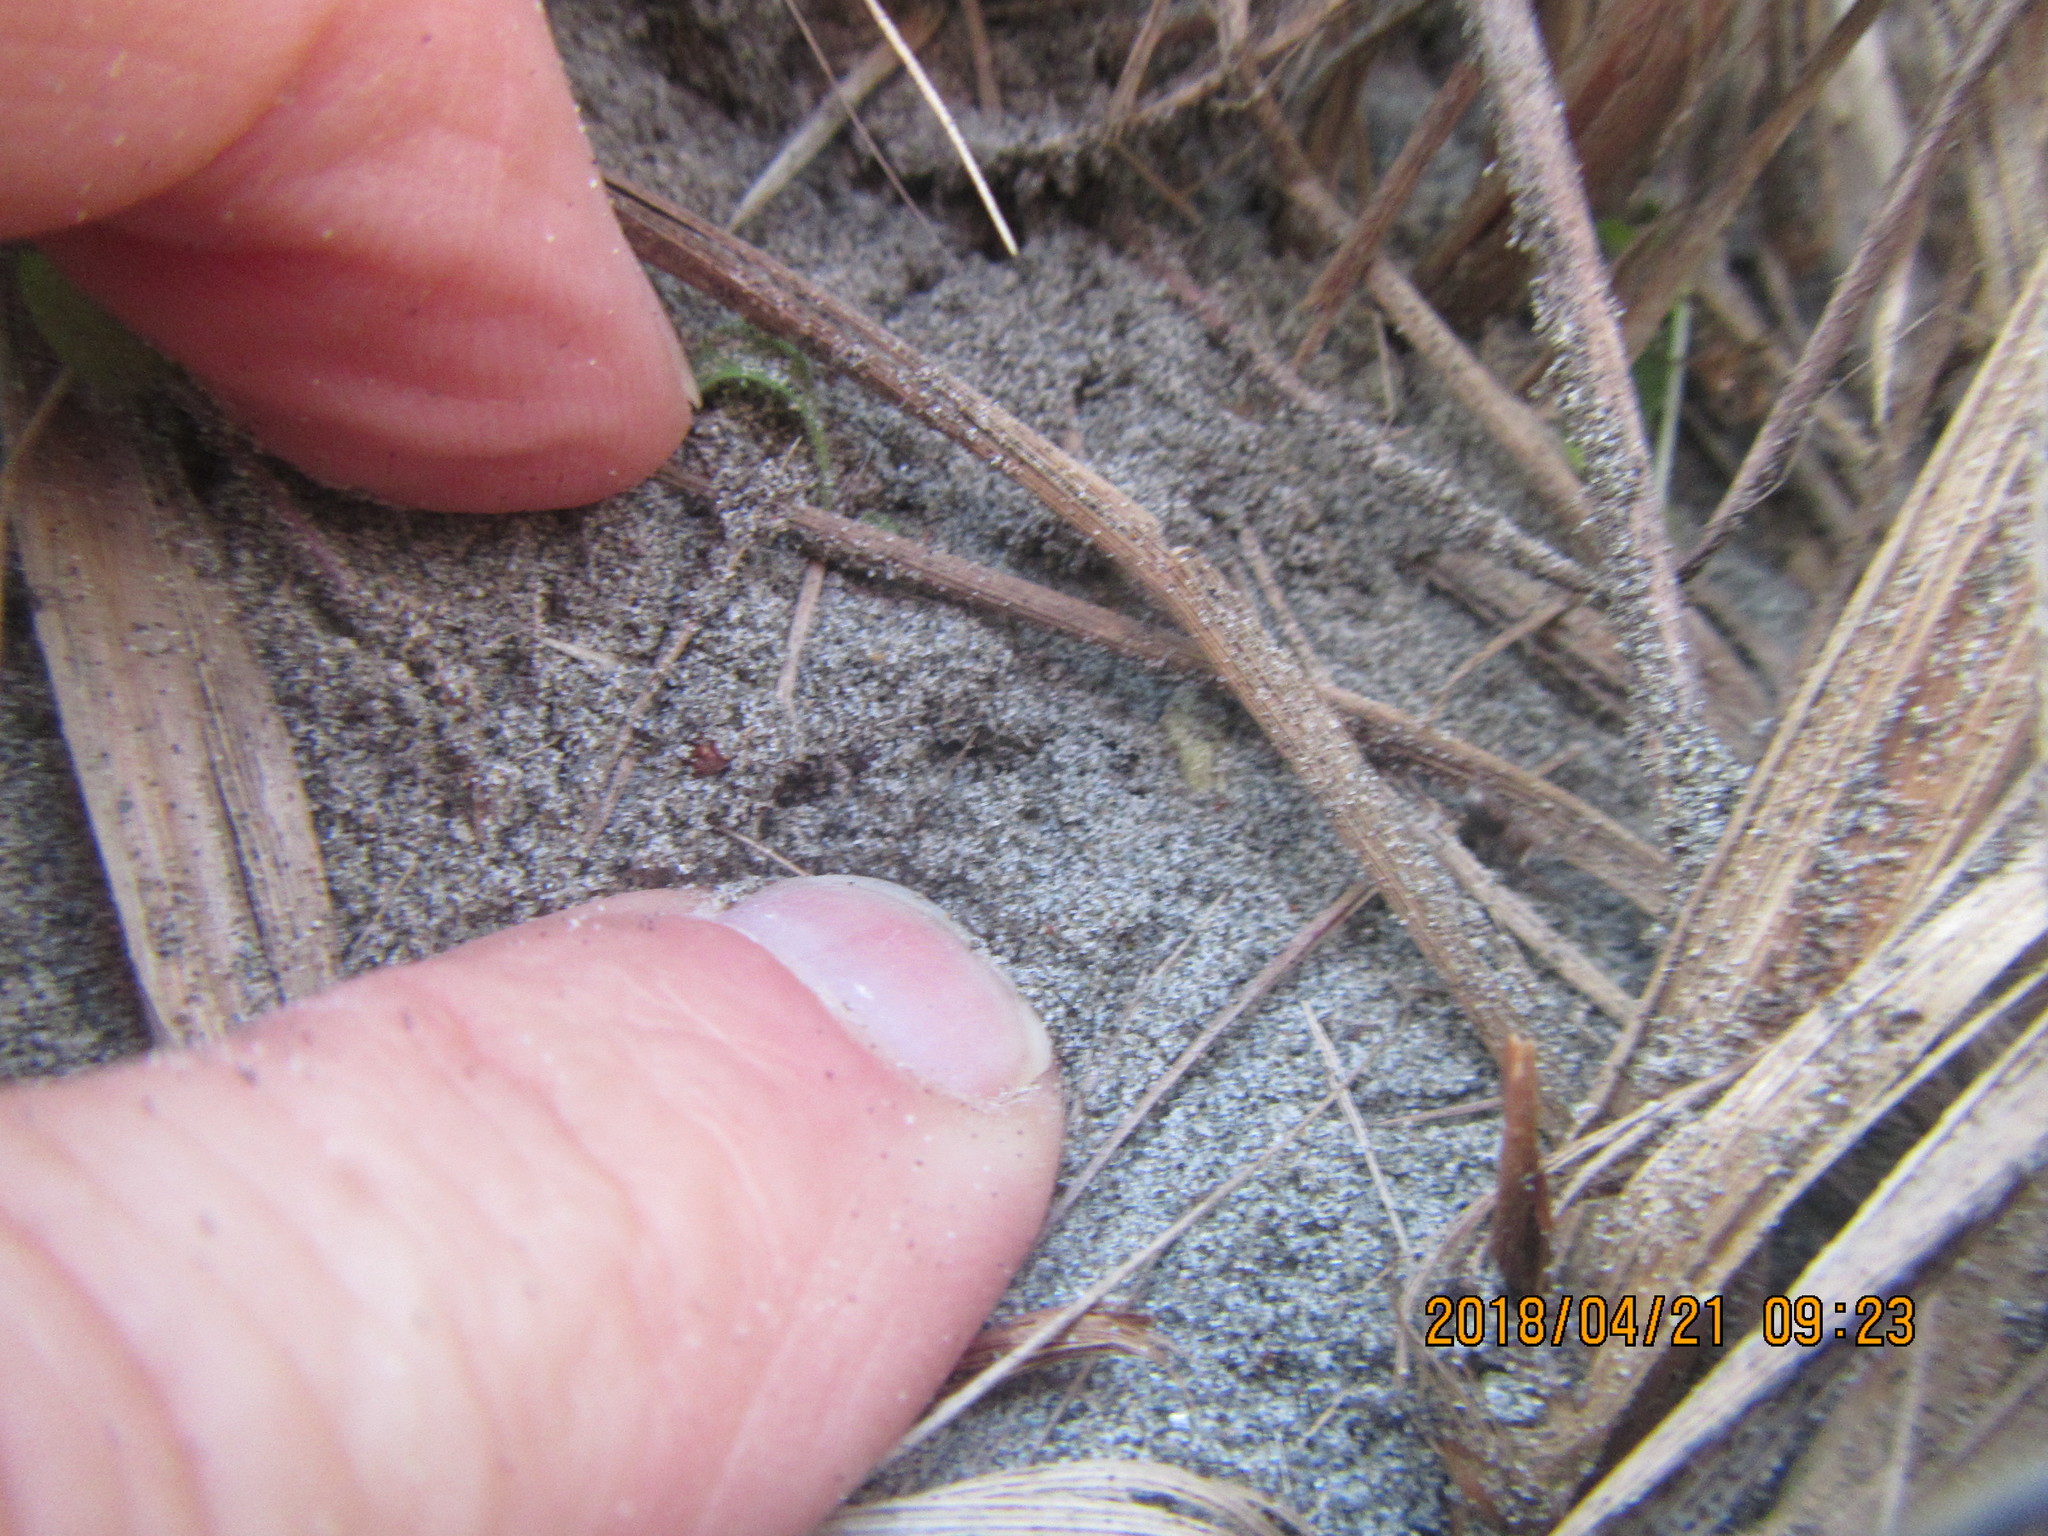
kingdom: Animalia
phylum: Arthropoda
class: Arachnida
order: Araneae
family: Gnaphosidae
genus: Anzacia
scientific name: Anzacia gemmea
